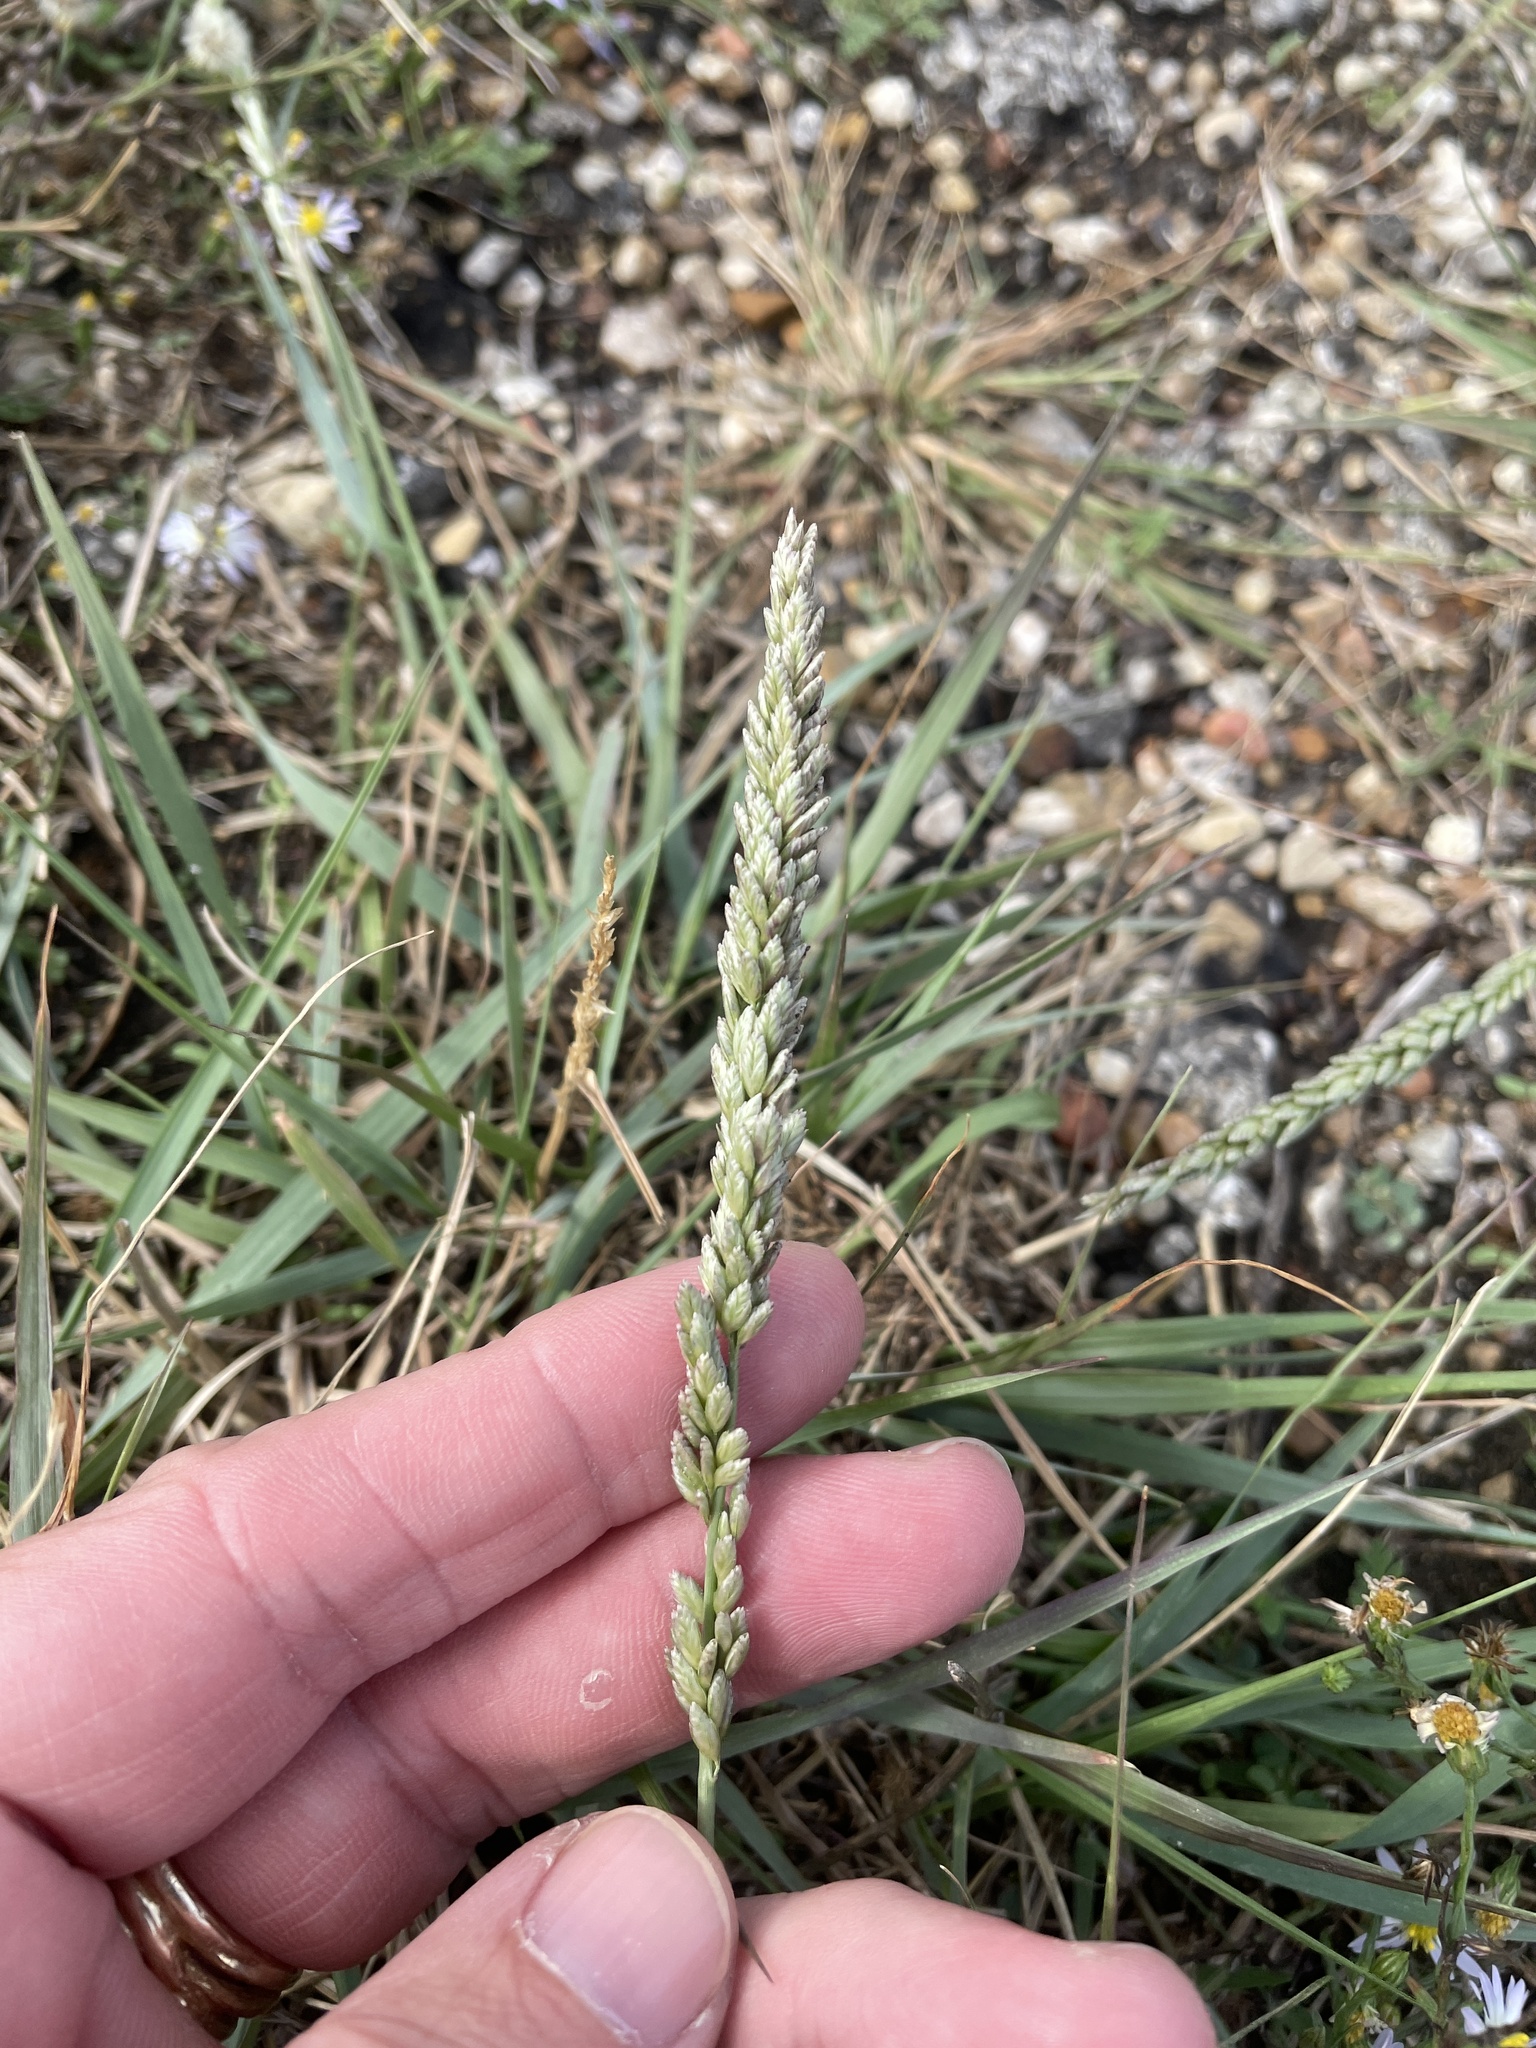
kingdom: Plantae
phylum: Tracheophyta
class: Liliopsida
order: Poales
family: Poaceae
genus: Tridens
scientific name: Tridens albescens
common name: White tridens
